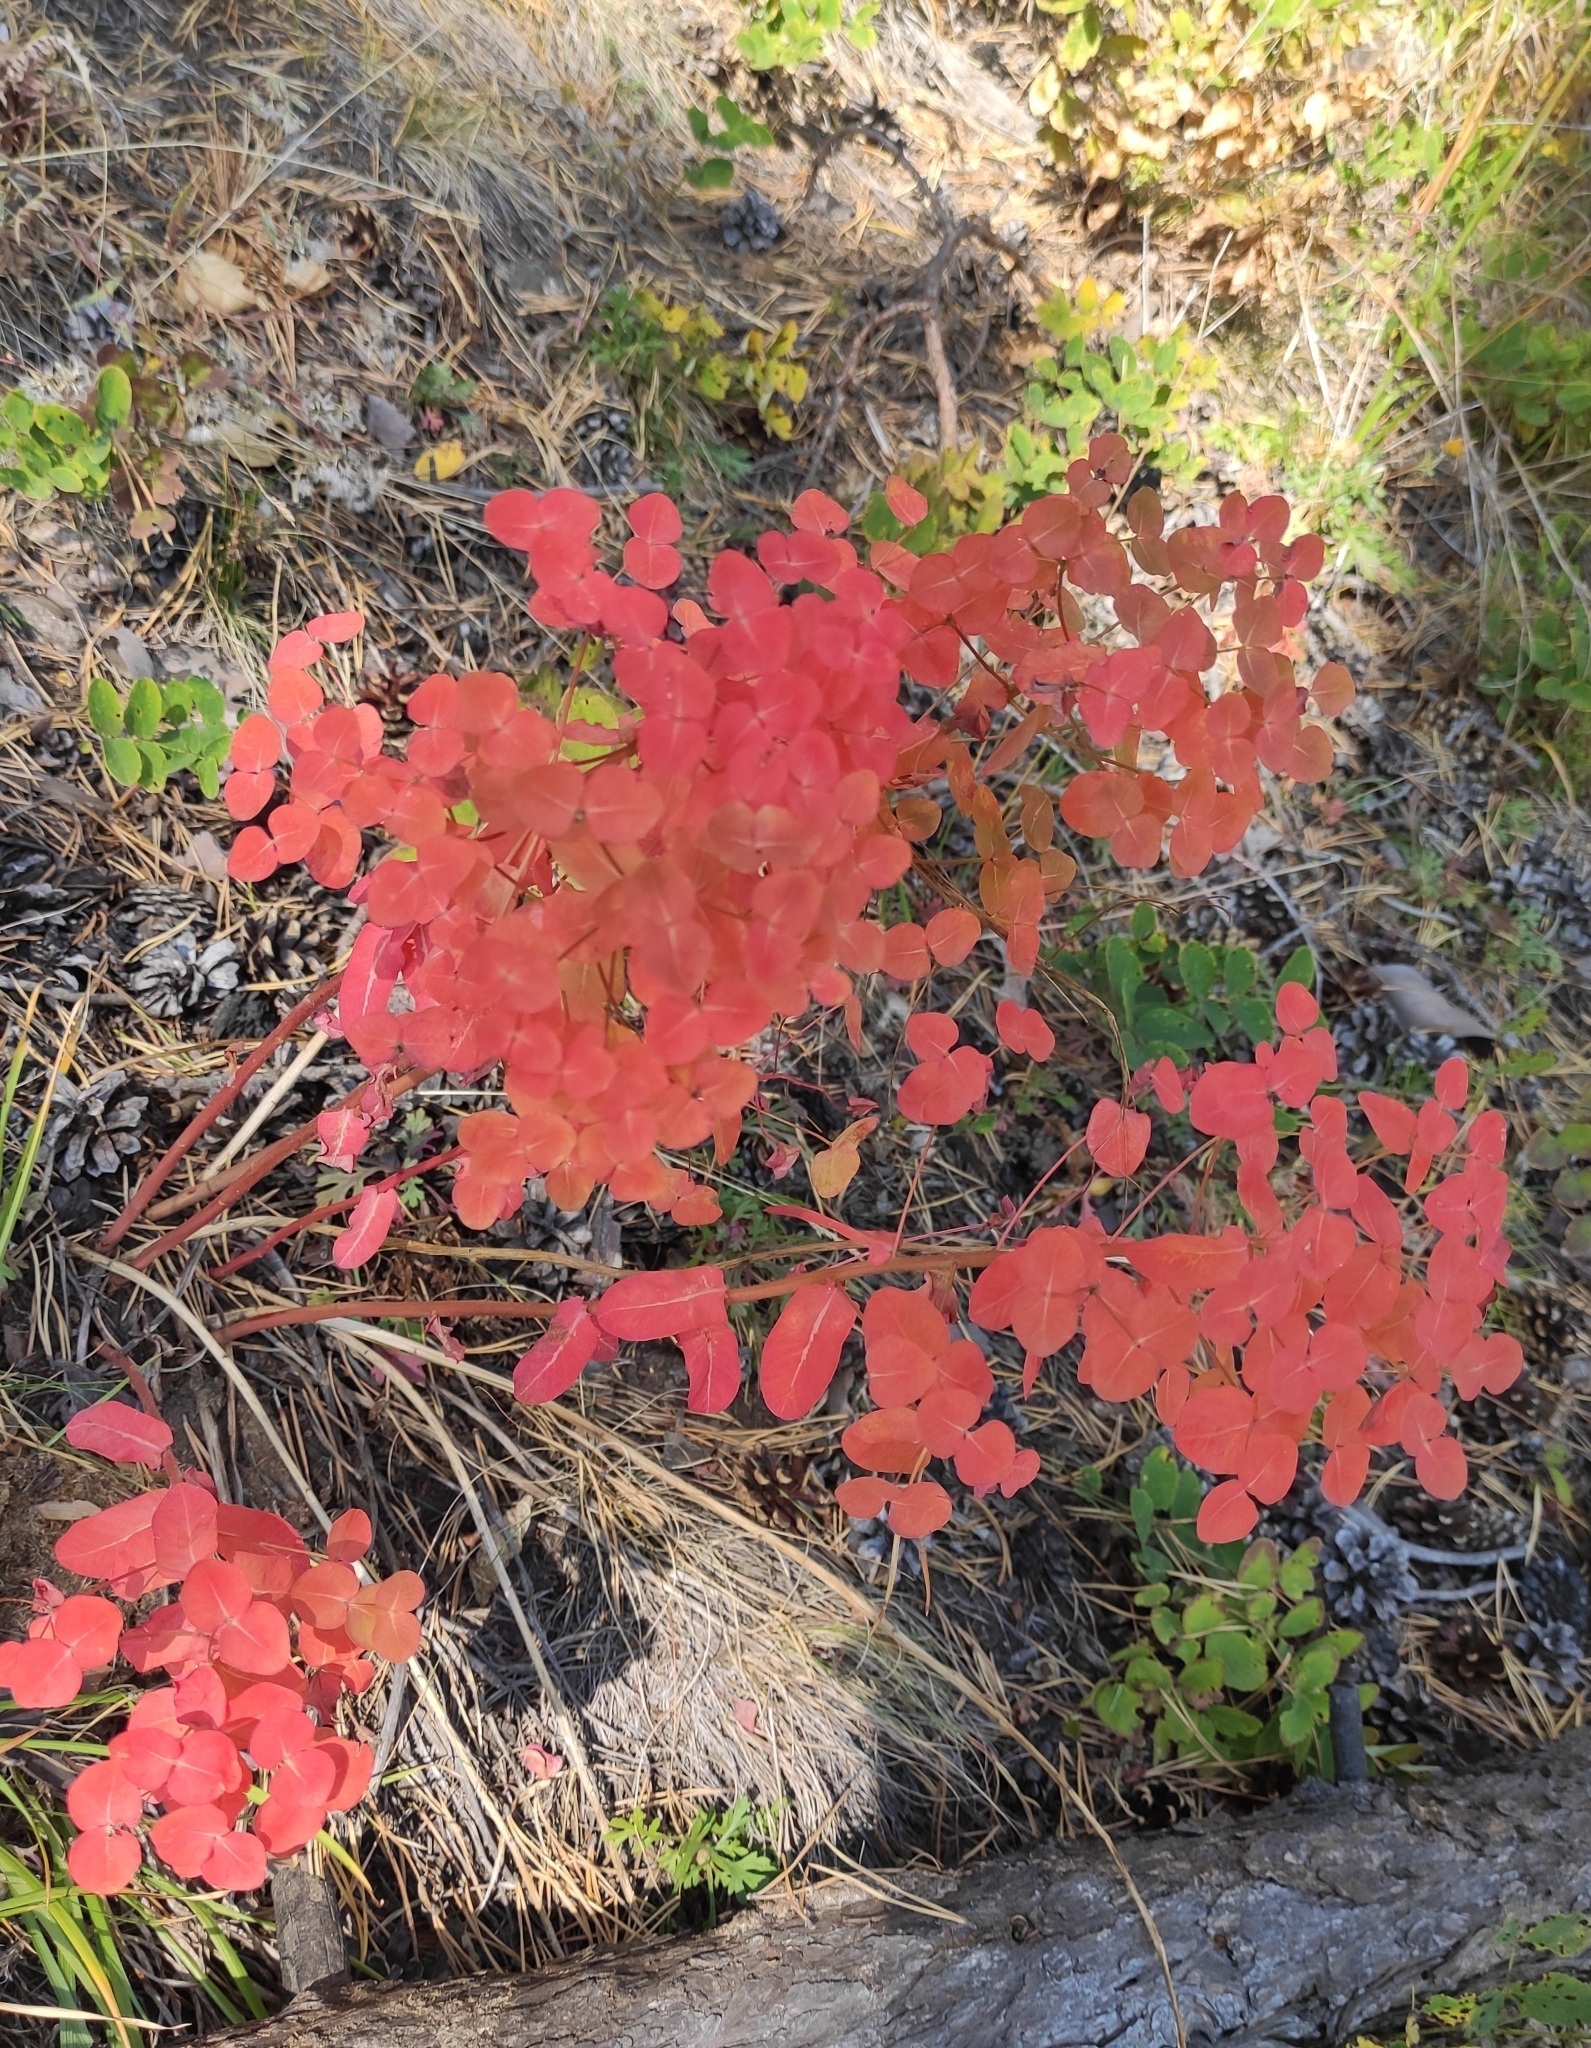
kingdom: Plantae
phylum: Tracheophyta
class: Magnoliopsida
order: Malpighiales
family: Euphorbiaceae
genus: Euphorbia
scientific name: Euphorbia jenisseiensis
